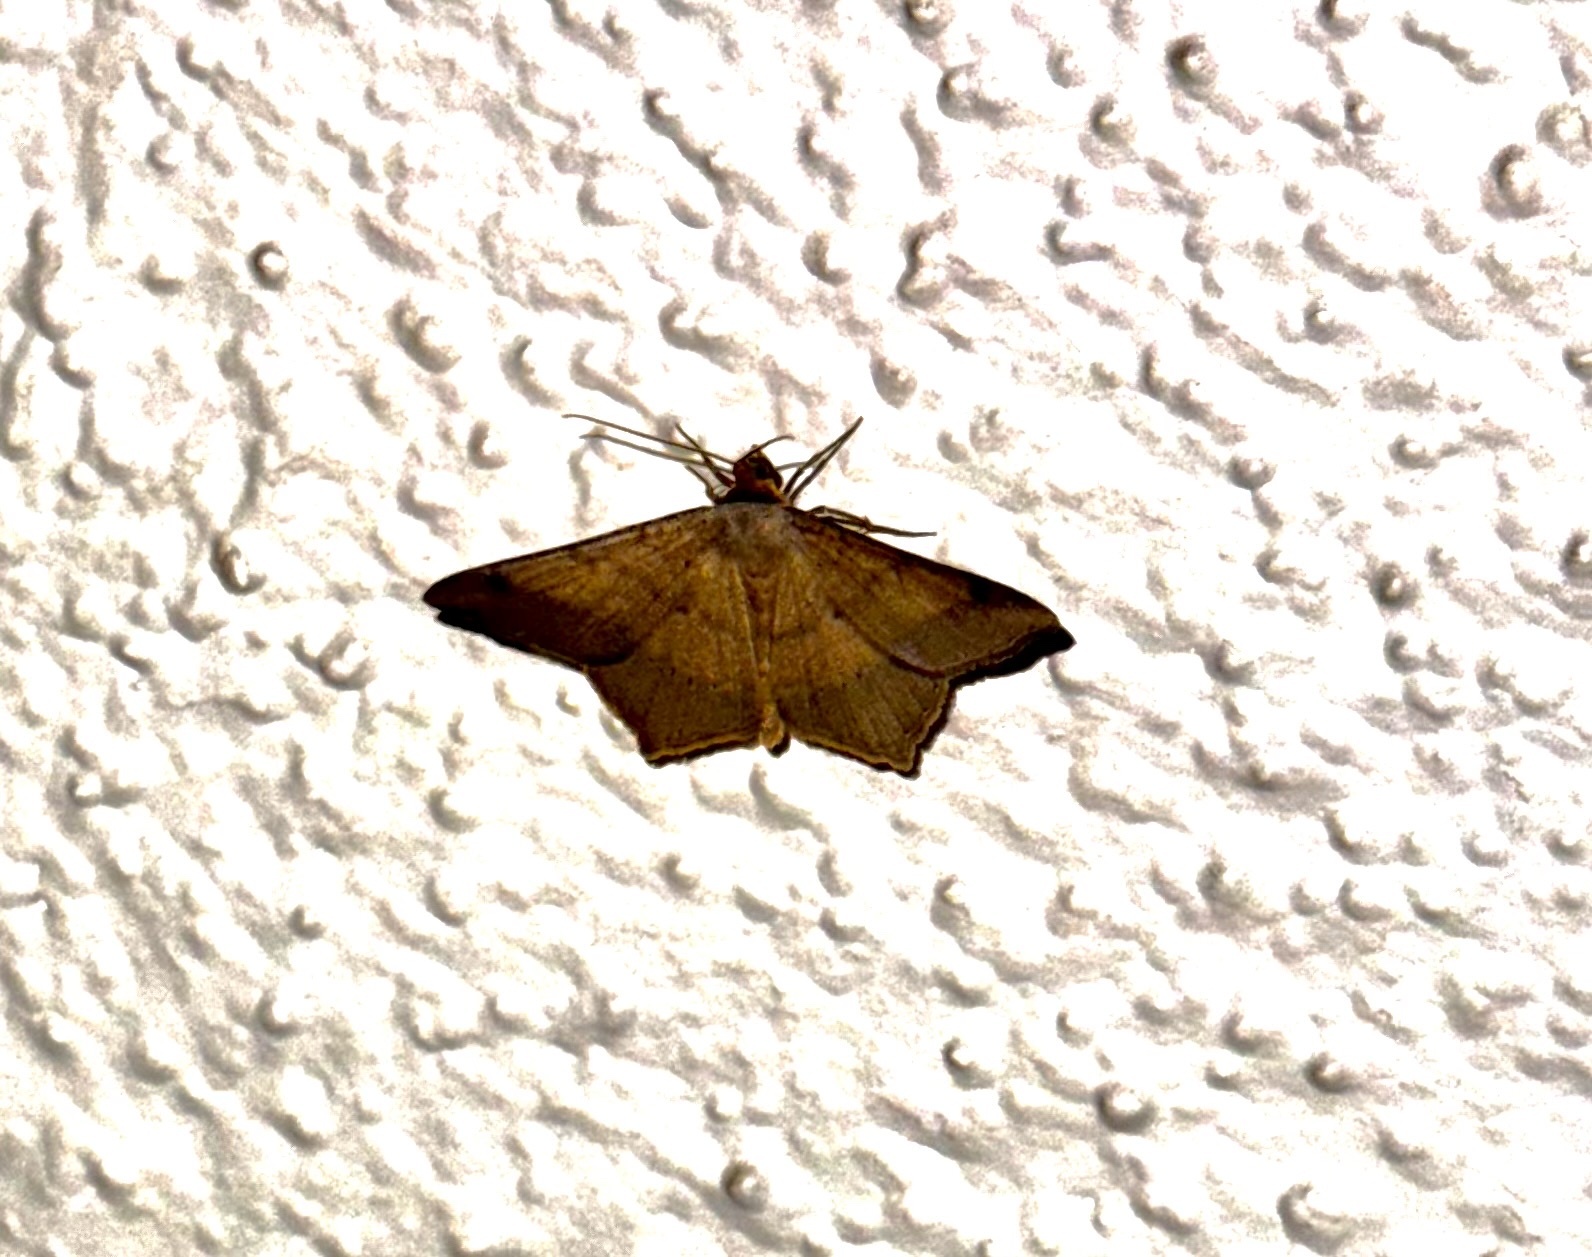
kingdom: Animalia
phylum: Arthropoda
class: Insecta
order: Lepidoptera
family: Geometridae
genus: Macaria
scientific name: Macaria abydata
